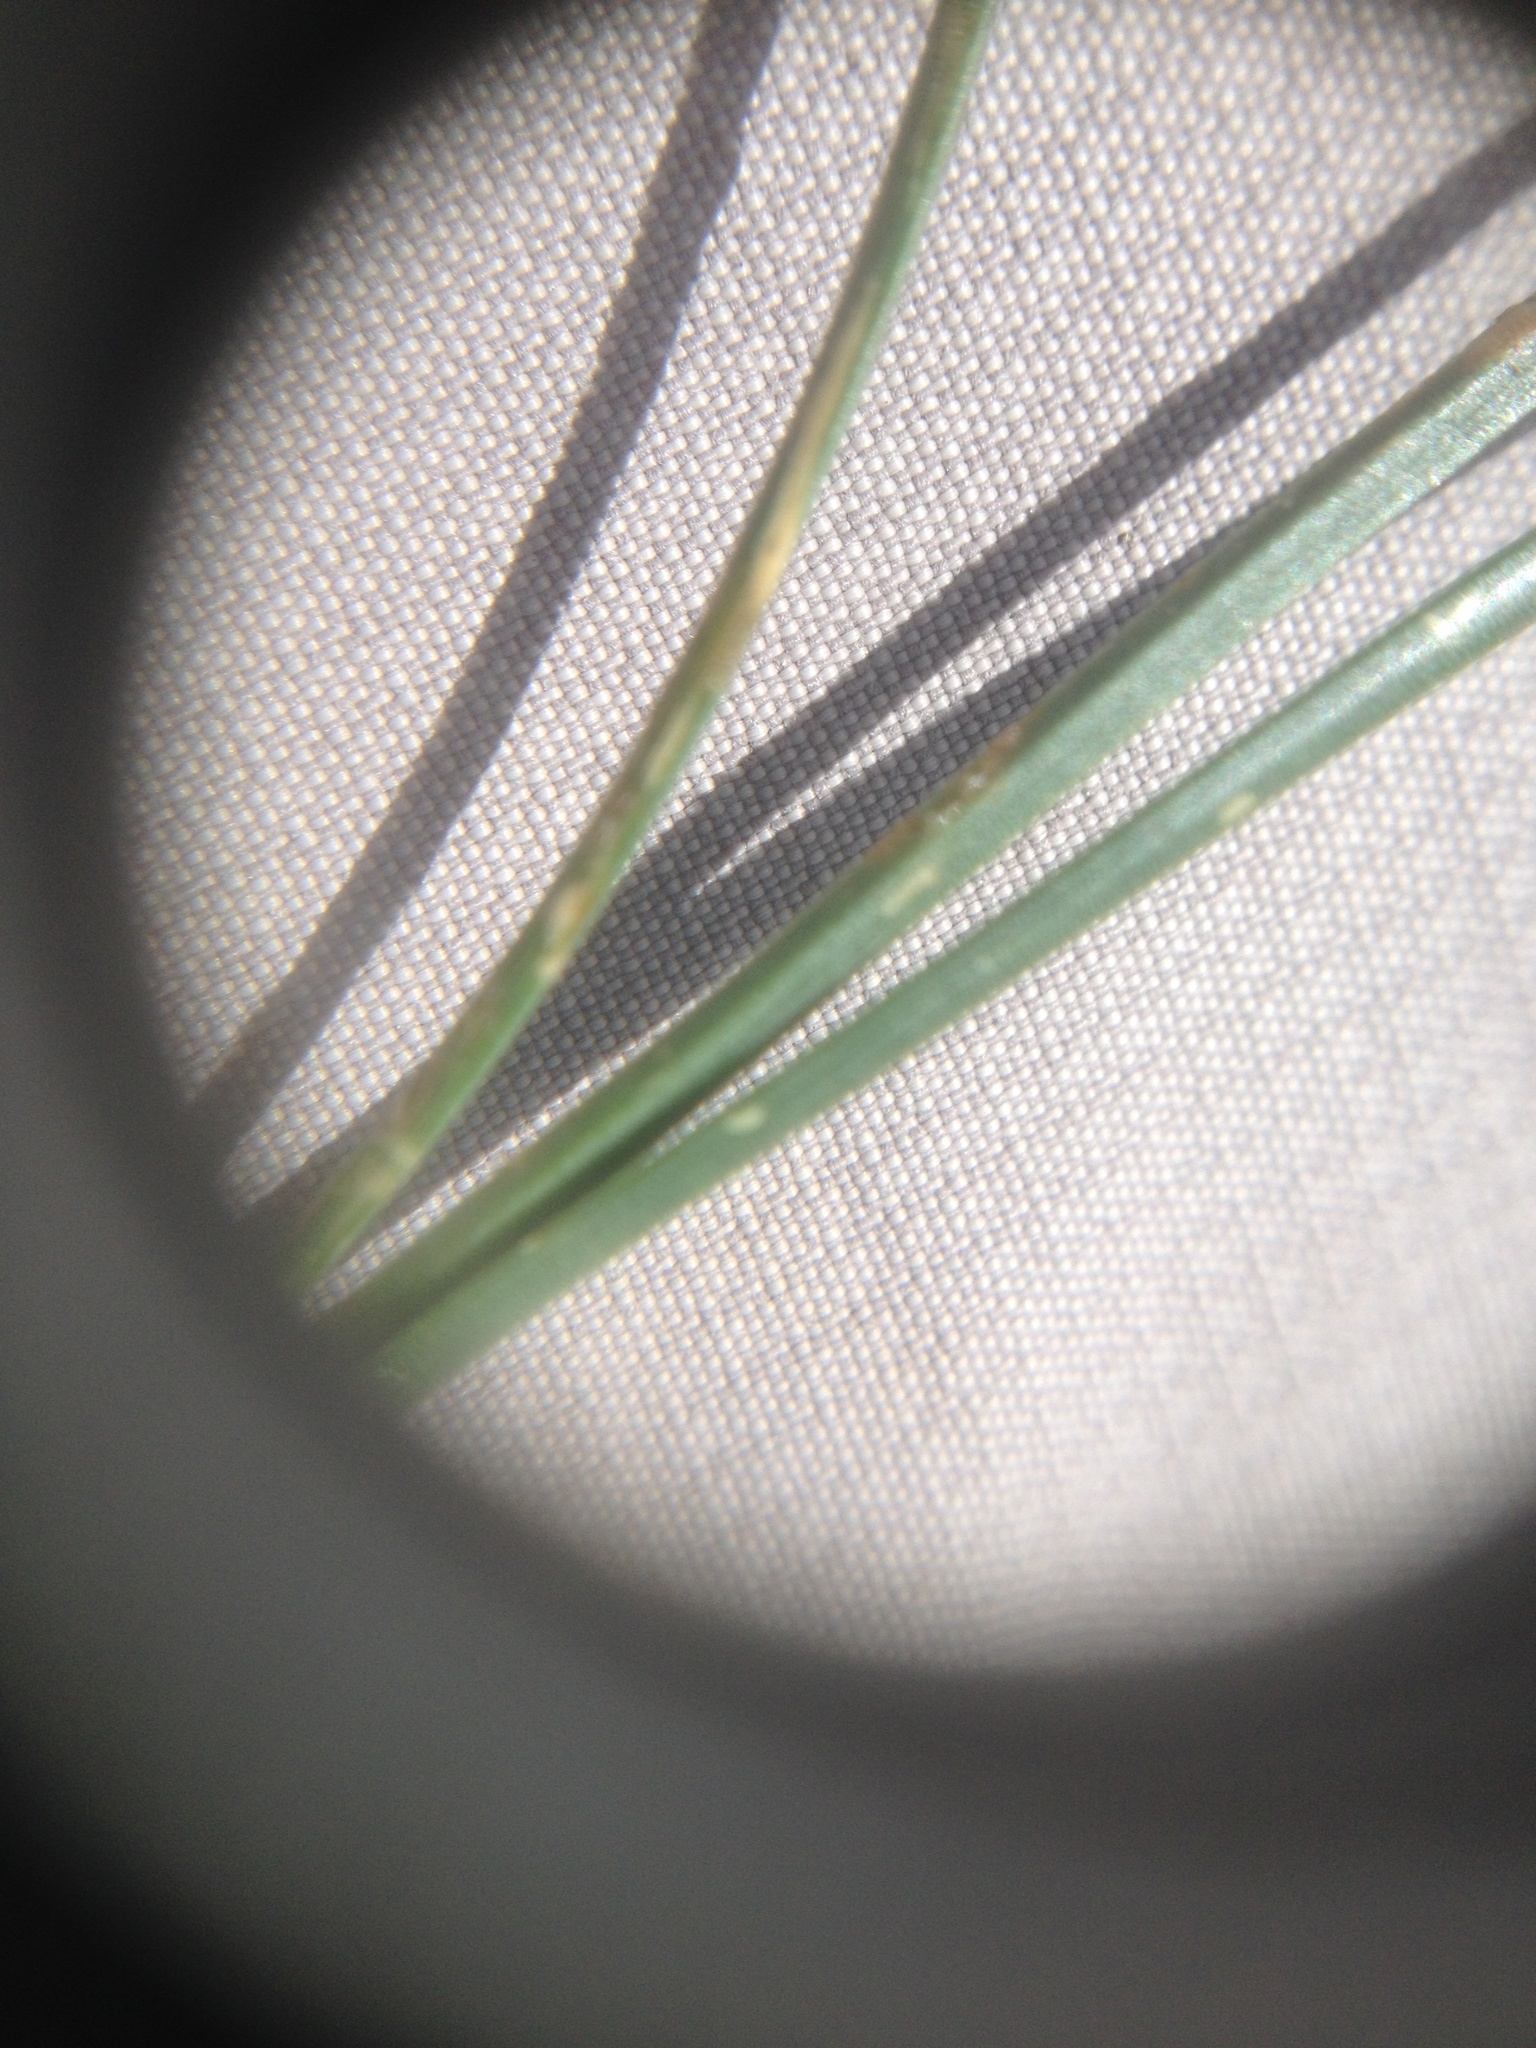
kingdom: Plantae
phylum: Tracheophyta
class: Pinopsida
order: Pinales
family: Pinaceae
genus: Pinus
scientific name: Pinus radiata
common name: Monterey pine
